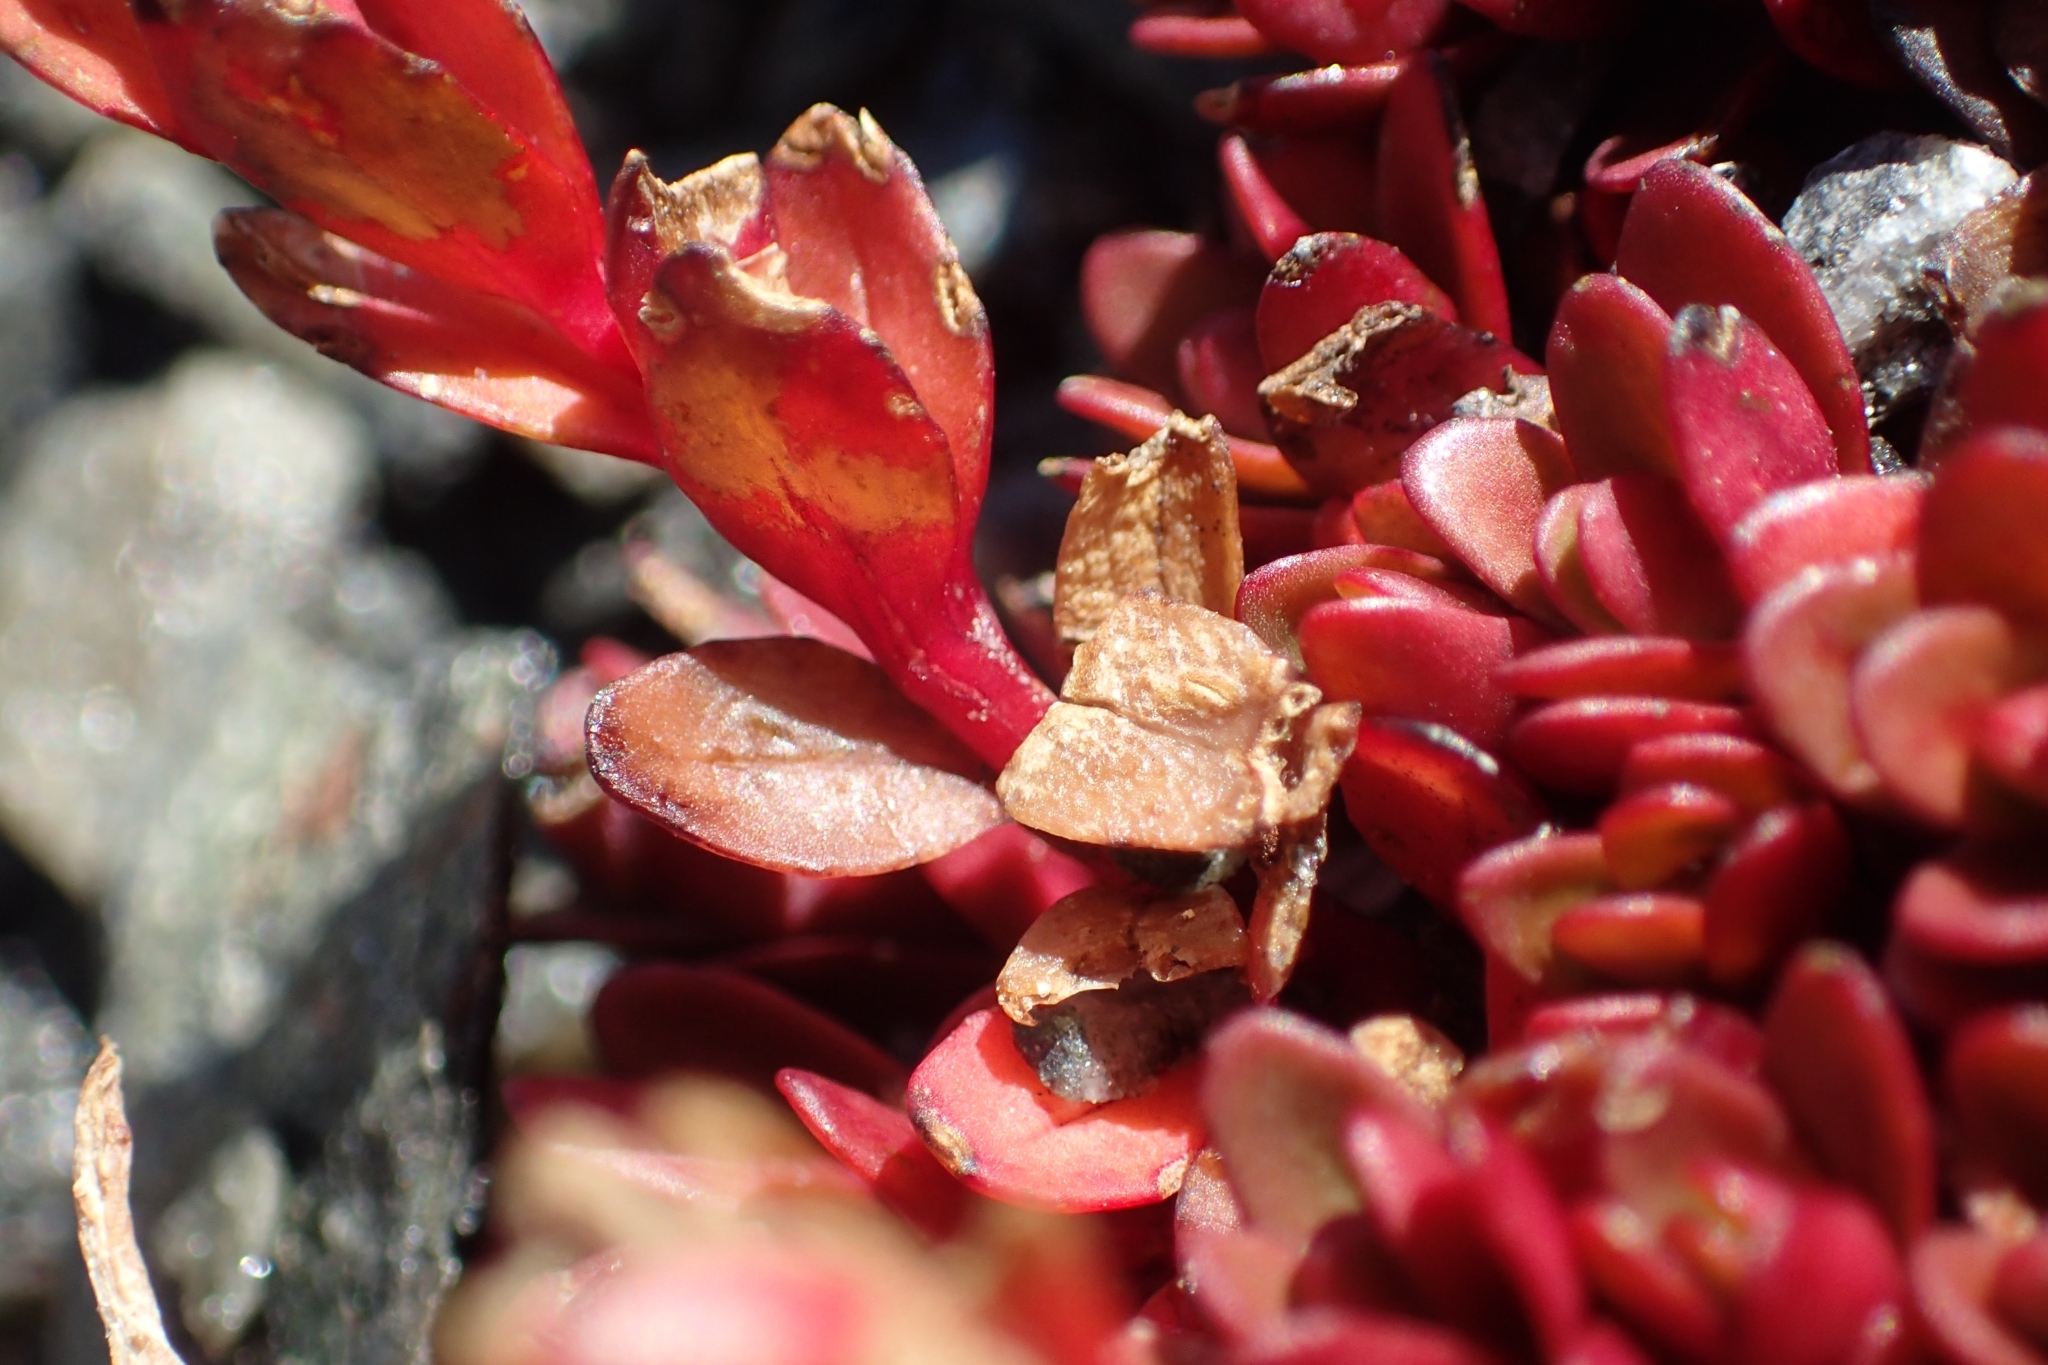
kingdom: Plantae
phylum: Tracheophyta
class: Magnoliopsida
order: Myrtales
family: Onagraceae
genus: Epilobium
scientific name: Epilobium tasmanicum
